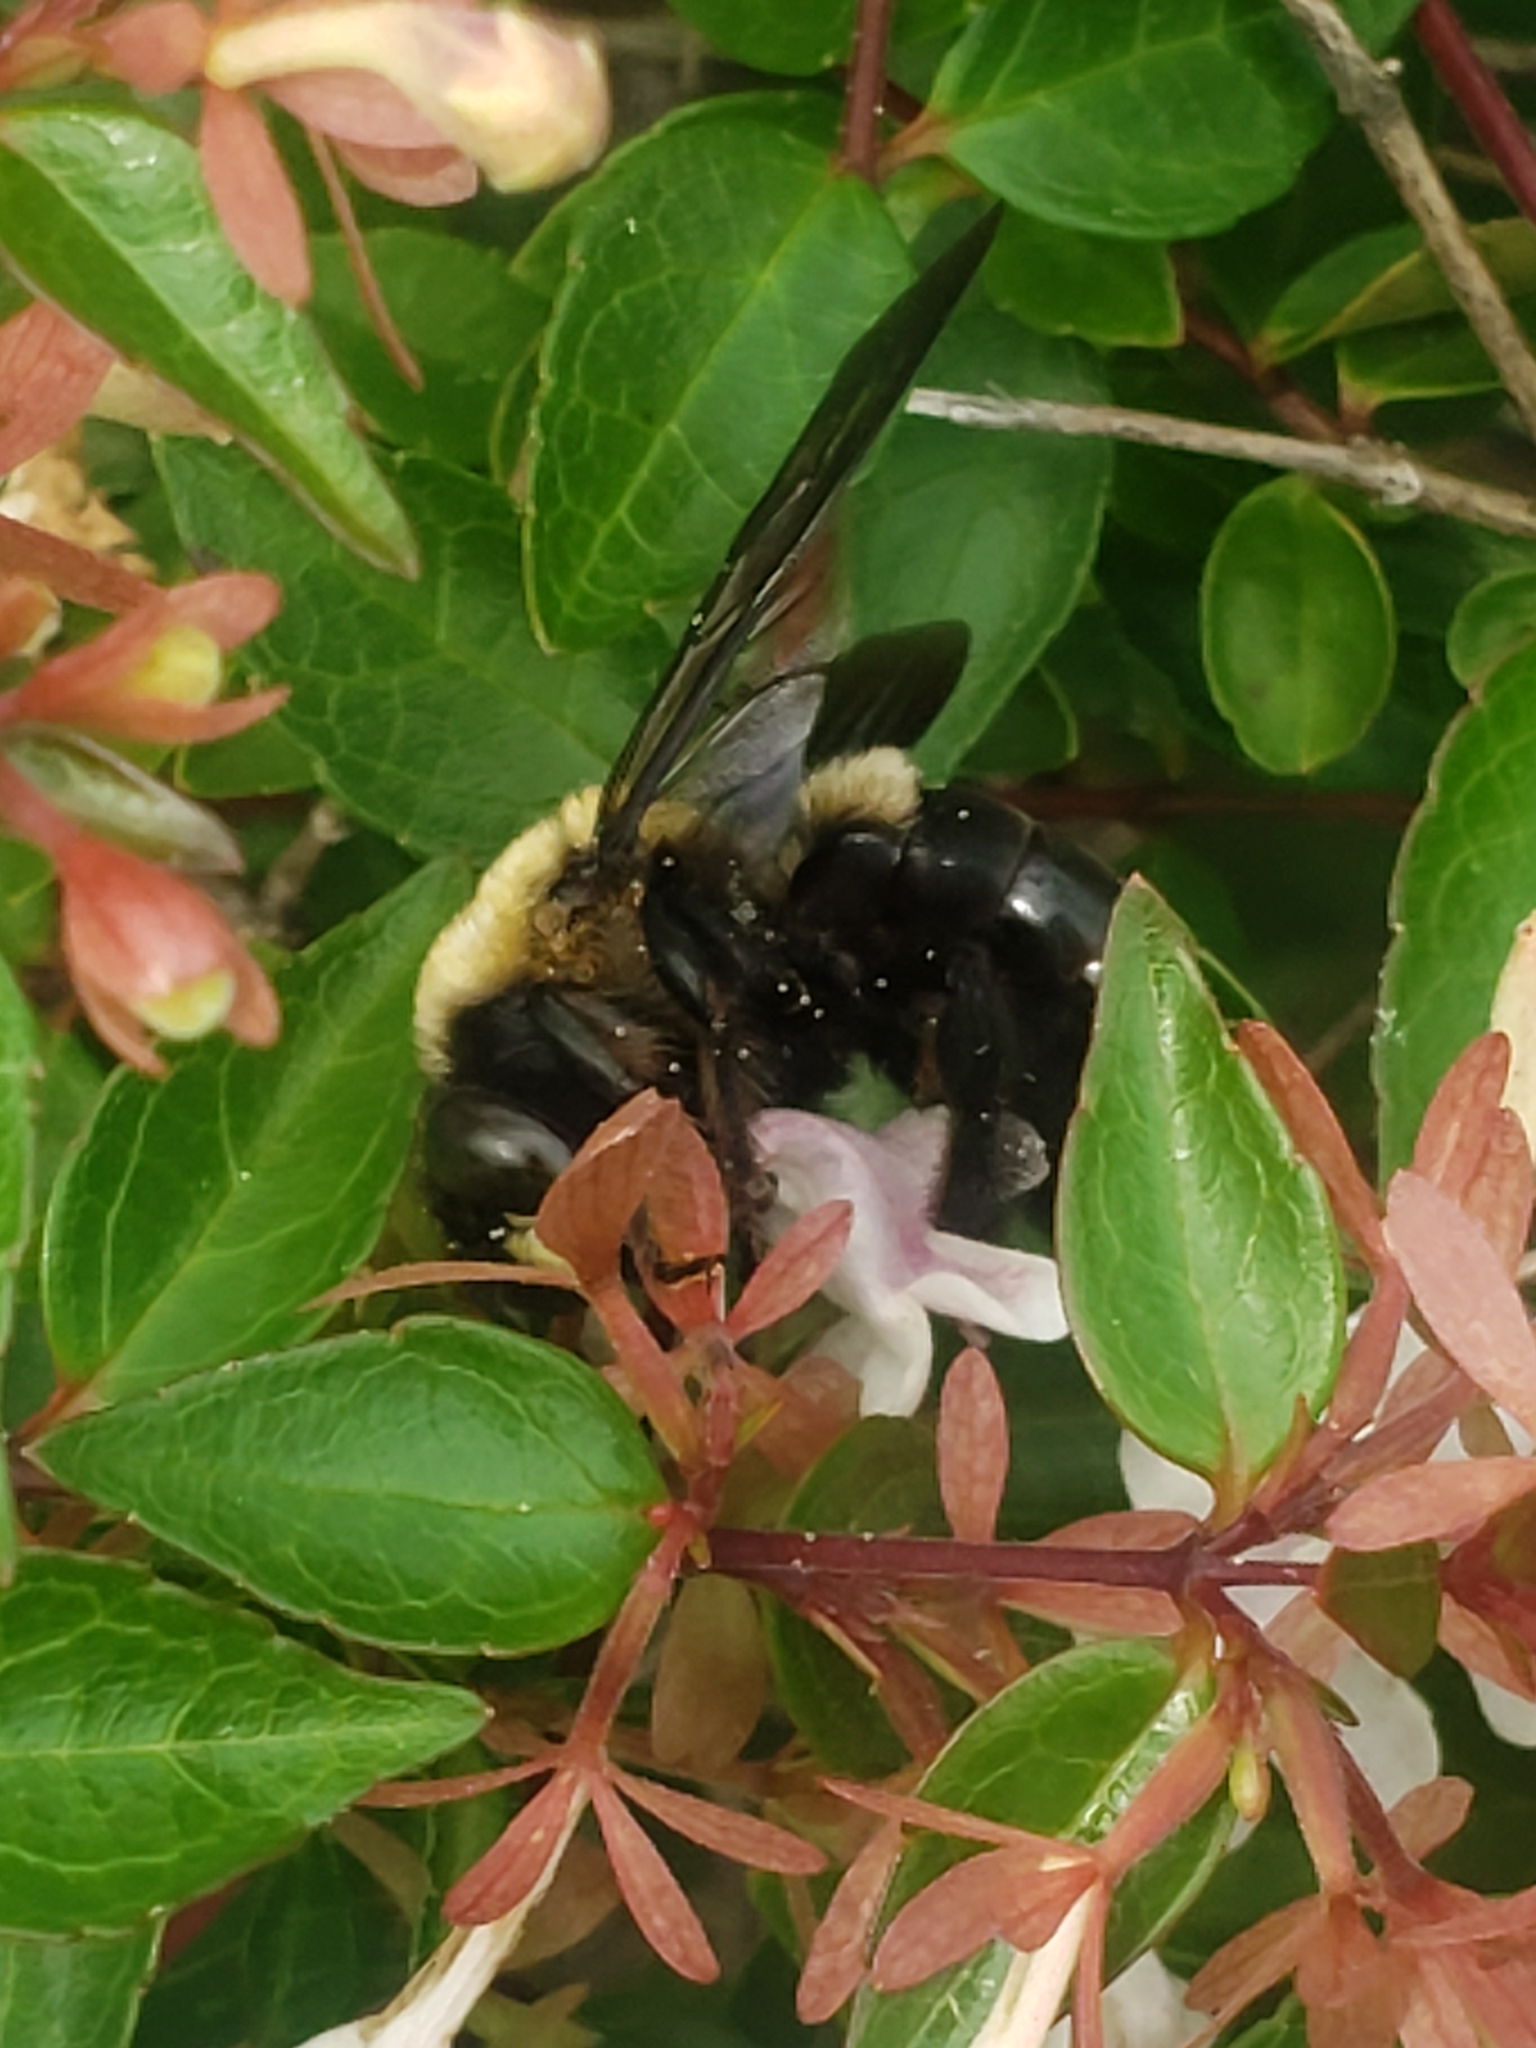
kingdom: Animalia
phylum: Arthropoda
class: Insecta
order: Hymenoptera
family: Apidae
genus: Xylocopa
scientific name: Xylocopa virginica
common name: Carpenter bee
